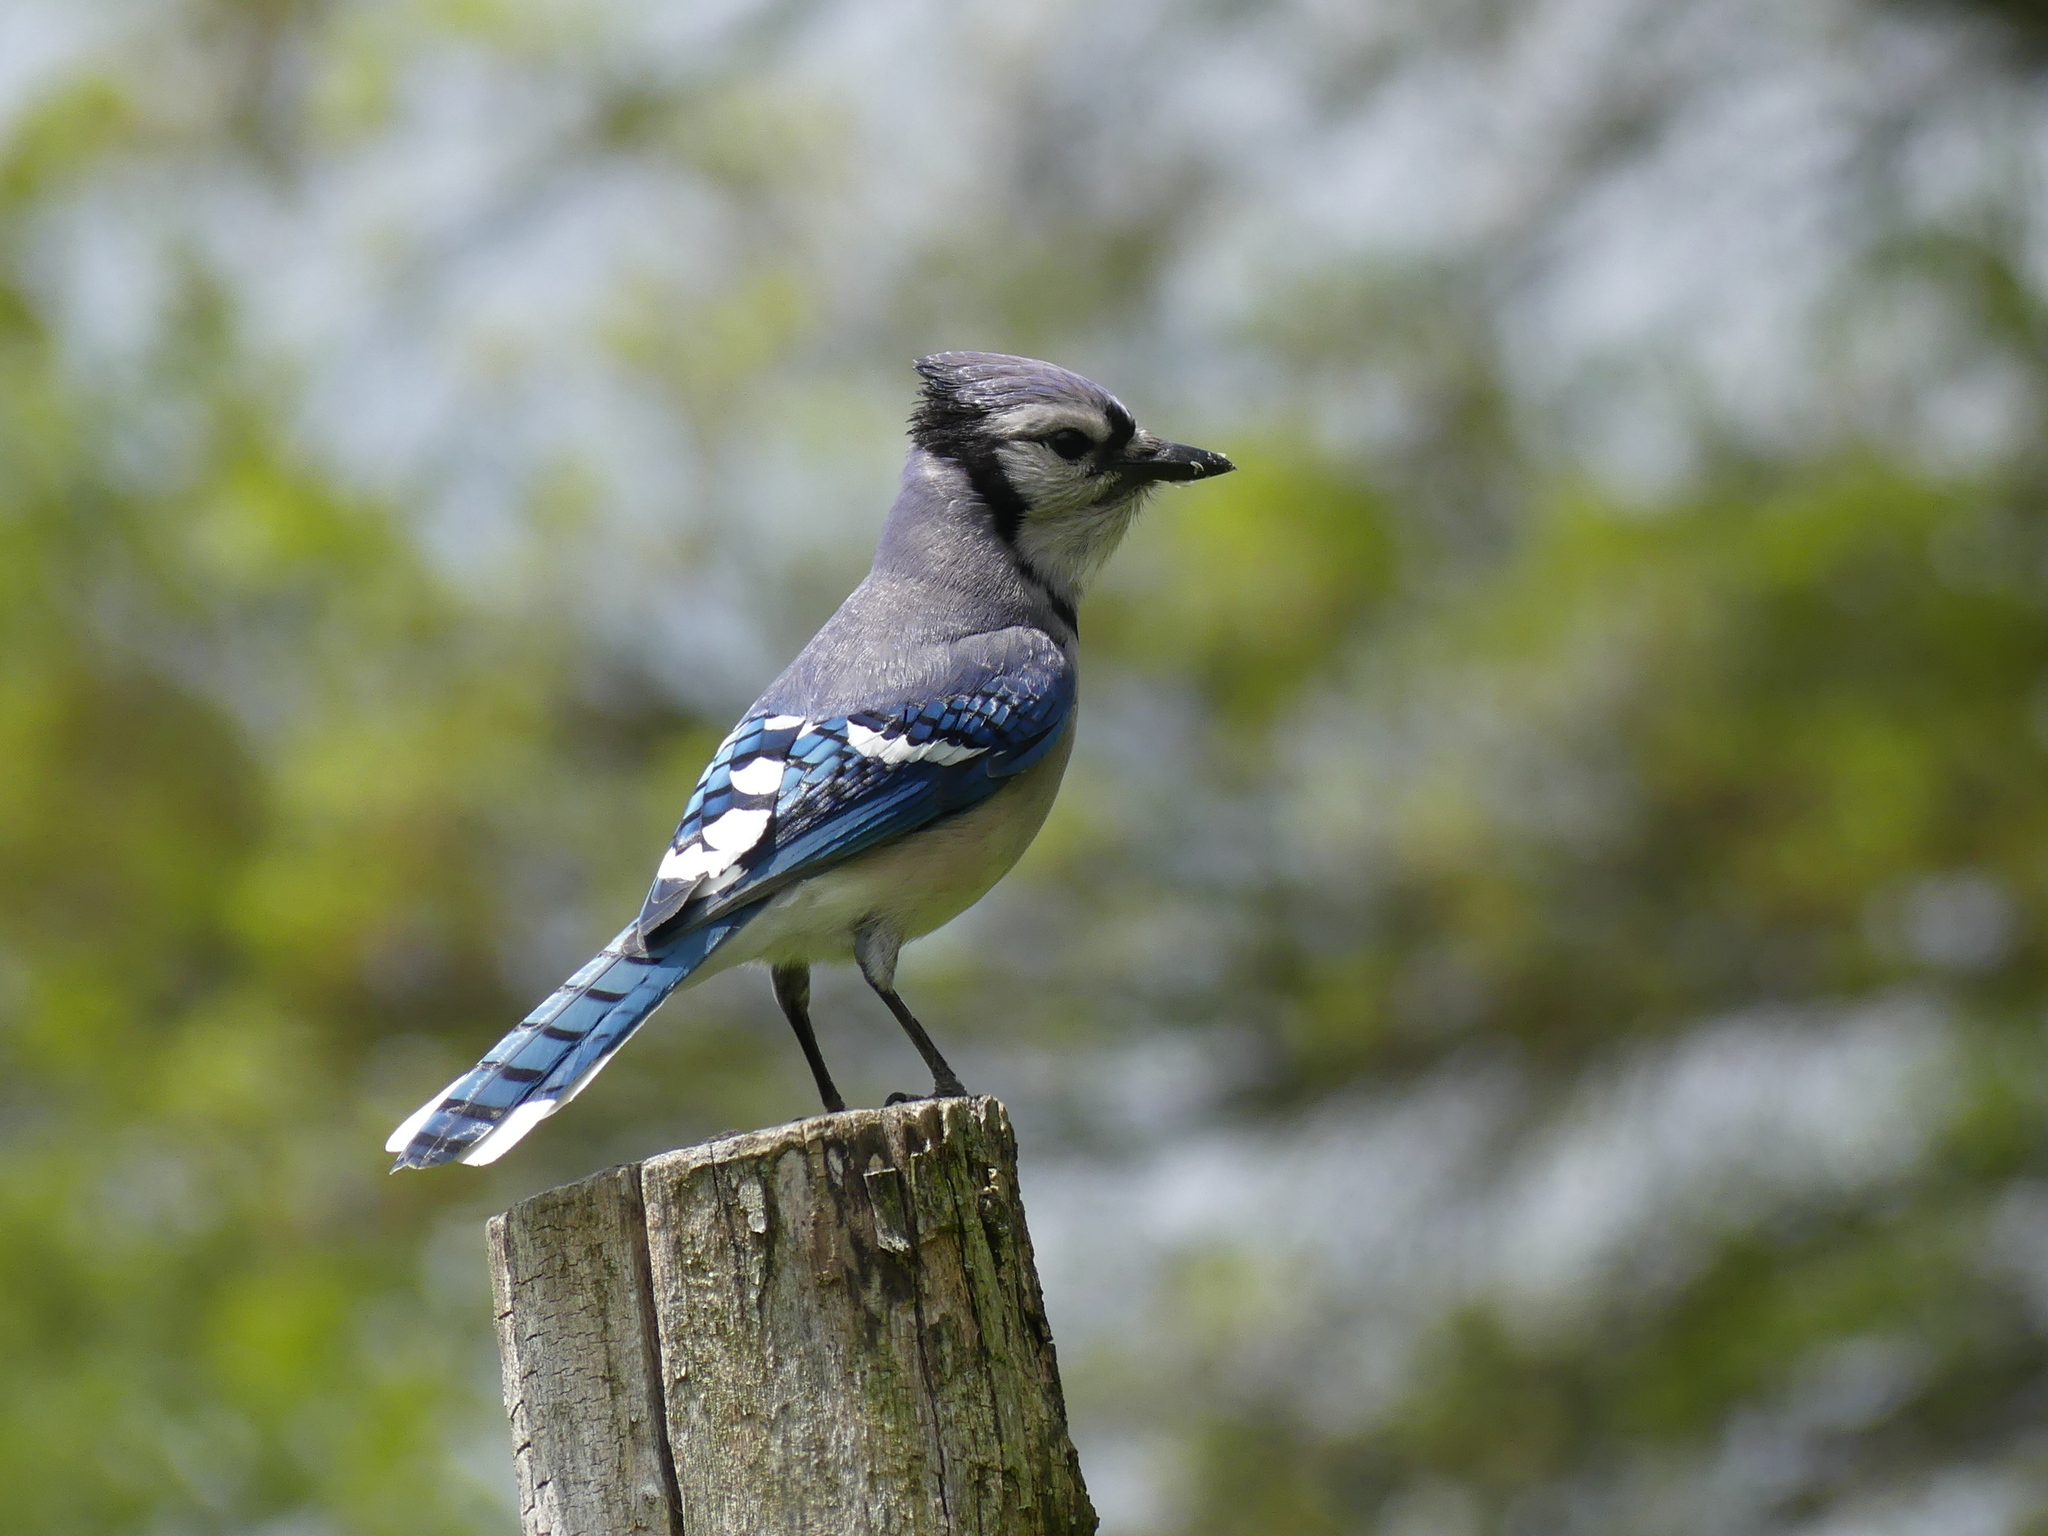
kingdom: Animalia
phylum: Chordata
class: Aves
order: Passeriformes
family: Corvidae
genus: Cyanocitta
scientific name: Cyanocitta cristata
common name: Blue jay
